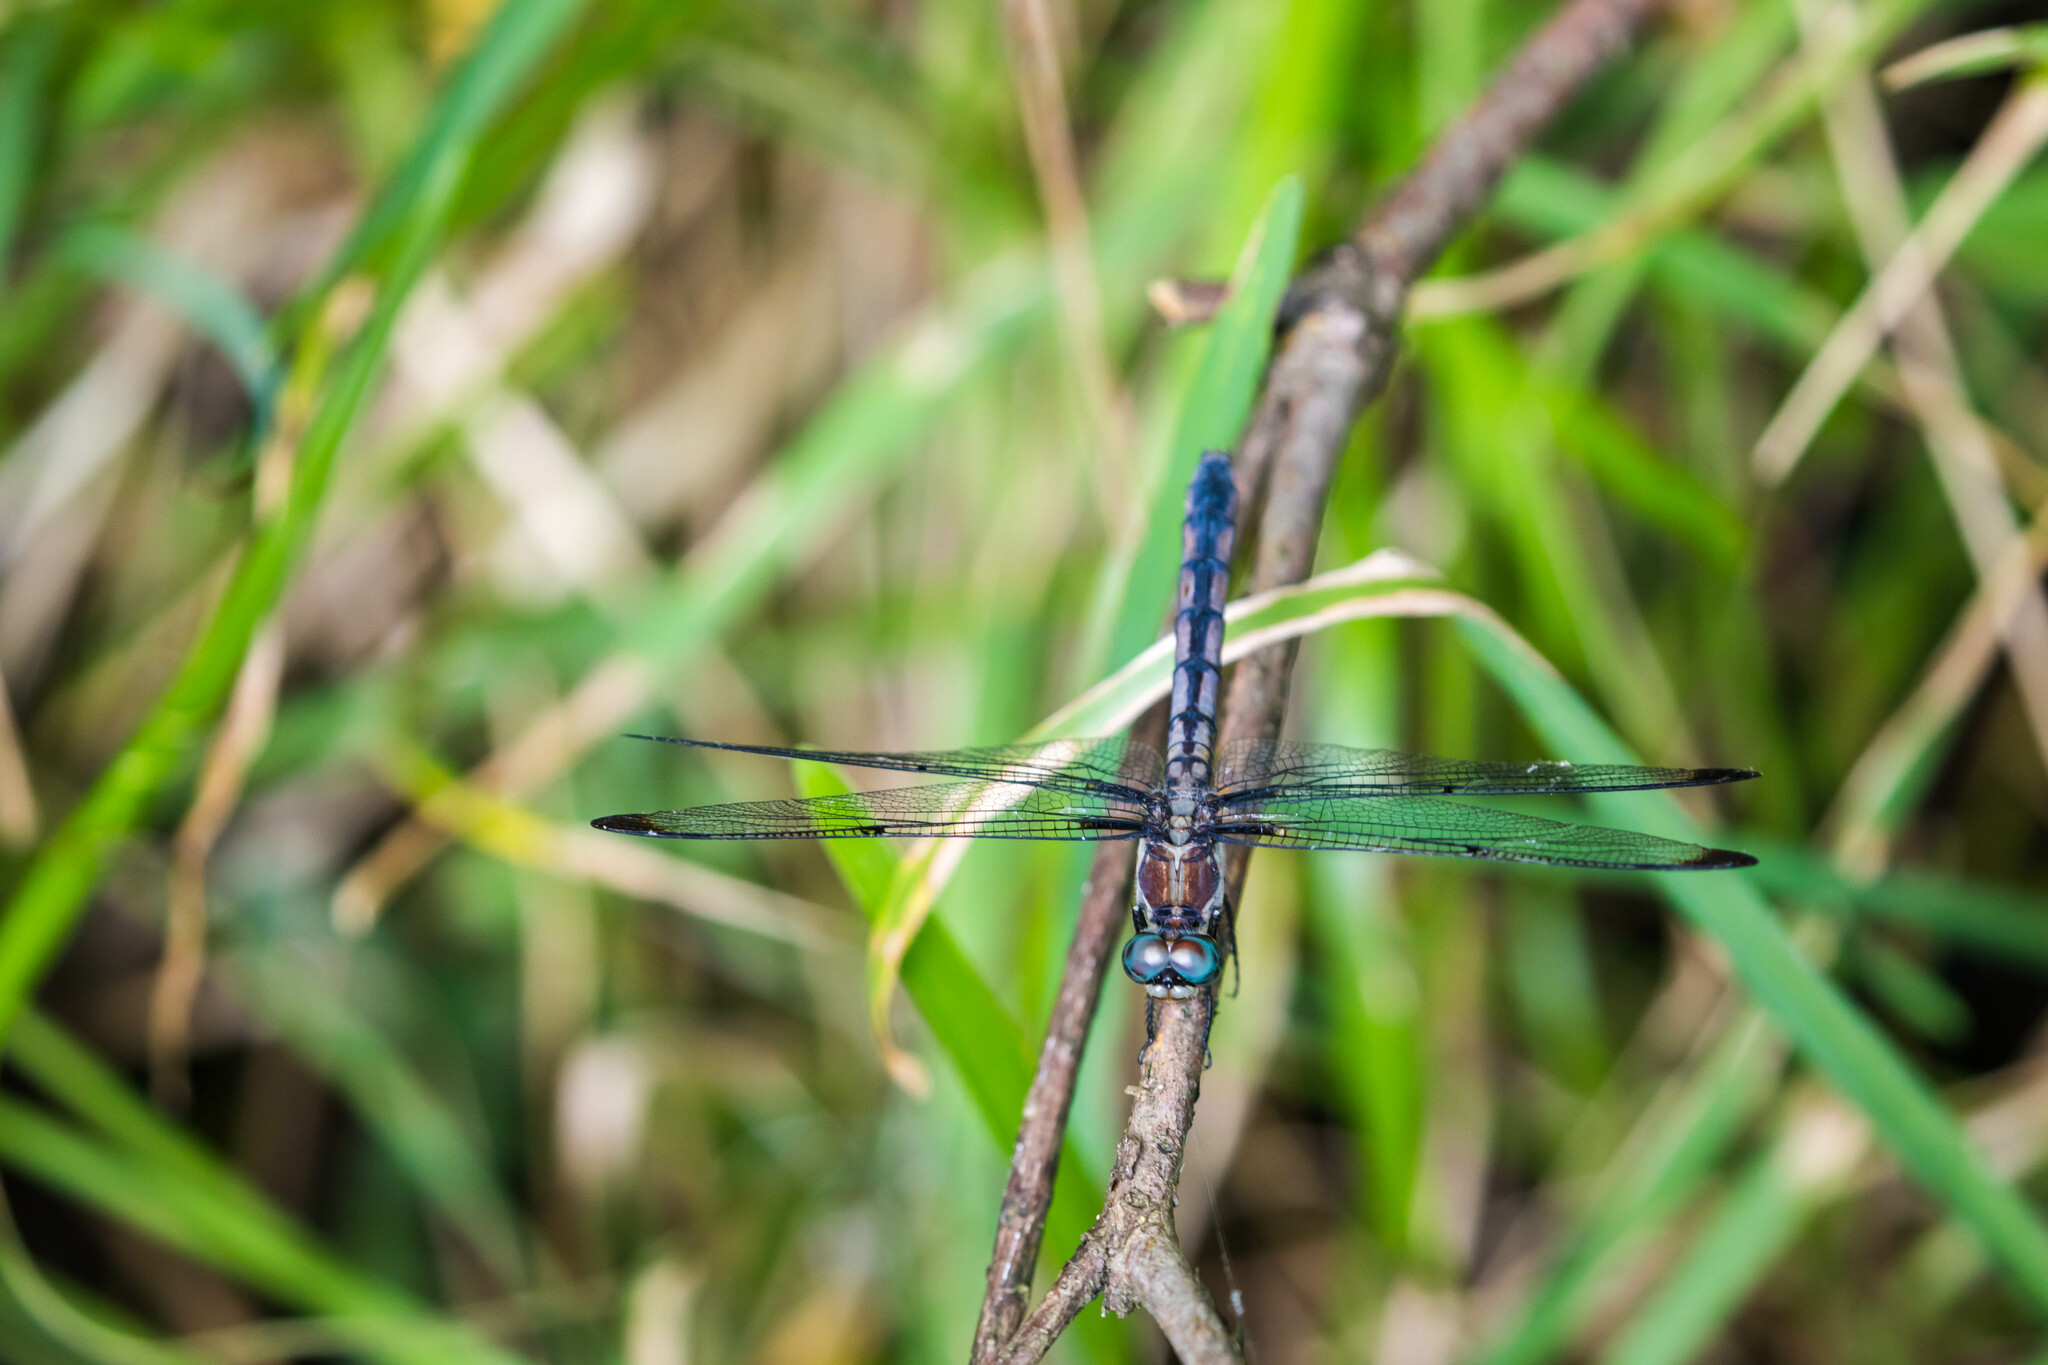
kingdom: Animalia
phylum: Arthropoda
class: Insecta
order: Odonata
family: Libellulidae
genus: Libellula
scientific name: Libellula vibrans
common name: Great blue skimmer
